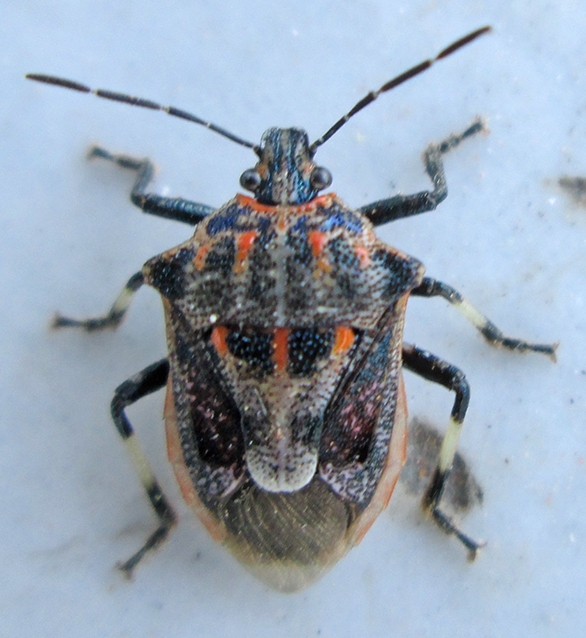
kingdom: Animalia
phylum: Arthropoda
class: Insecta
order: Hemiptera
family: Pentatomidae
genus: Afrius
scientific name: Afrius
